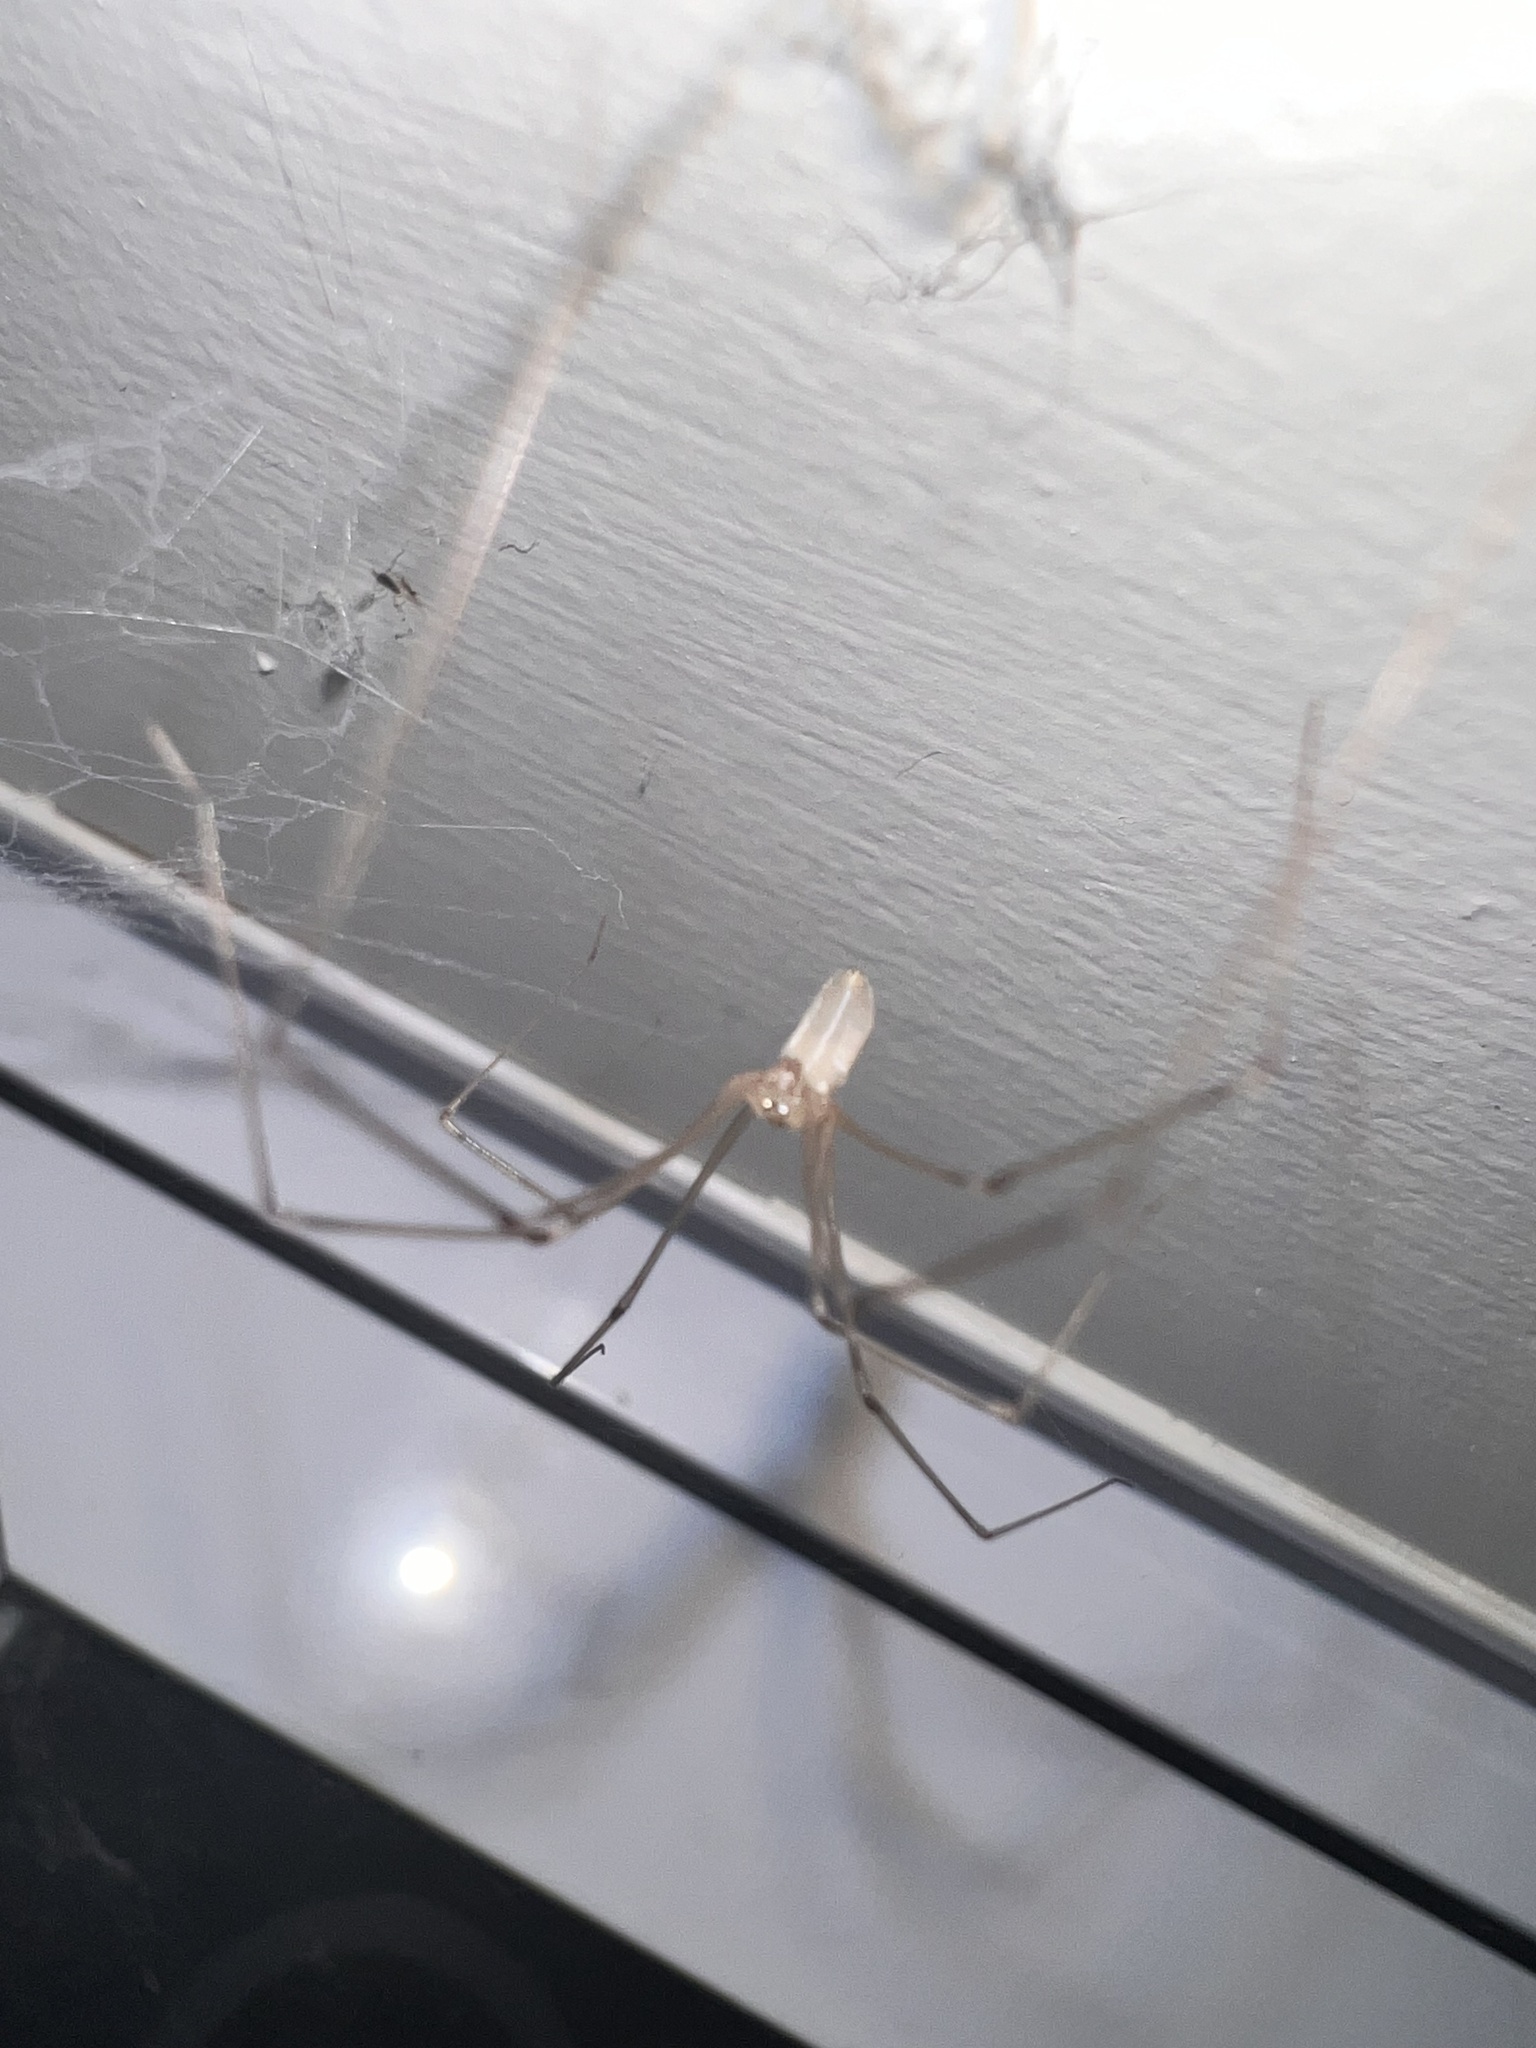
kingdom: Animalia
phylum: Arthropoda
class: Arachnida
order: Araneae
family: Pholcidae
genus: Pholcus
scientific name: Pholcus phalangioides
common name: Longbodied cellar spider
